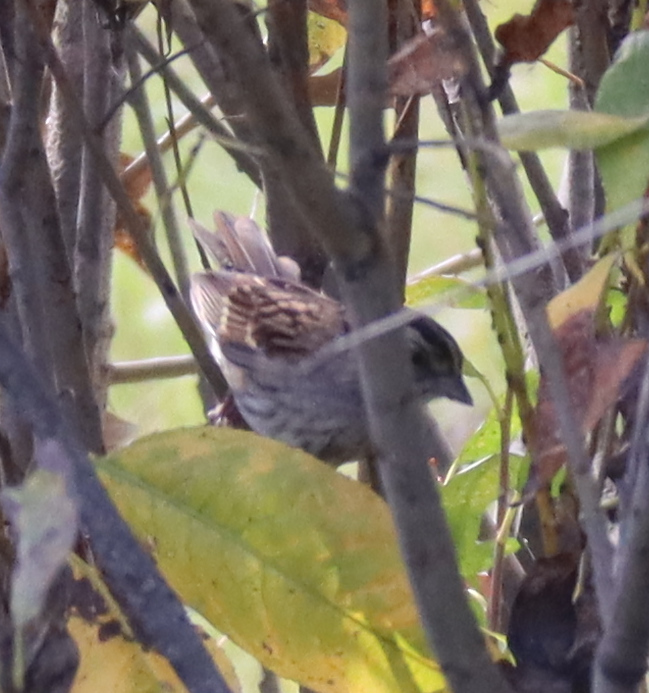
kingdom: Animalia
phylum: Chordata
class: Aves
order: Passeriformes
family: Passerellidae
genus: Zonotrichia
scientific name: Zonotrichia albicollis
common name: White-throated sparrow
